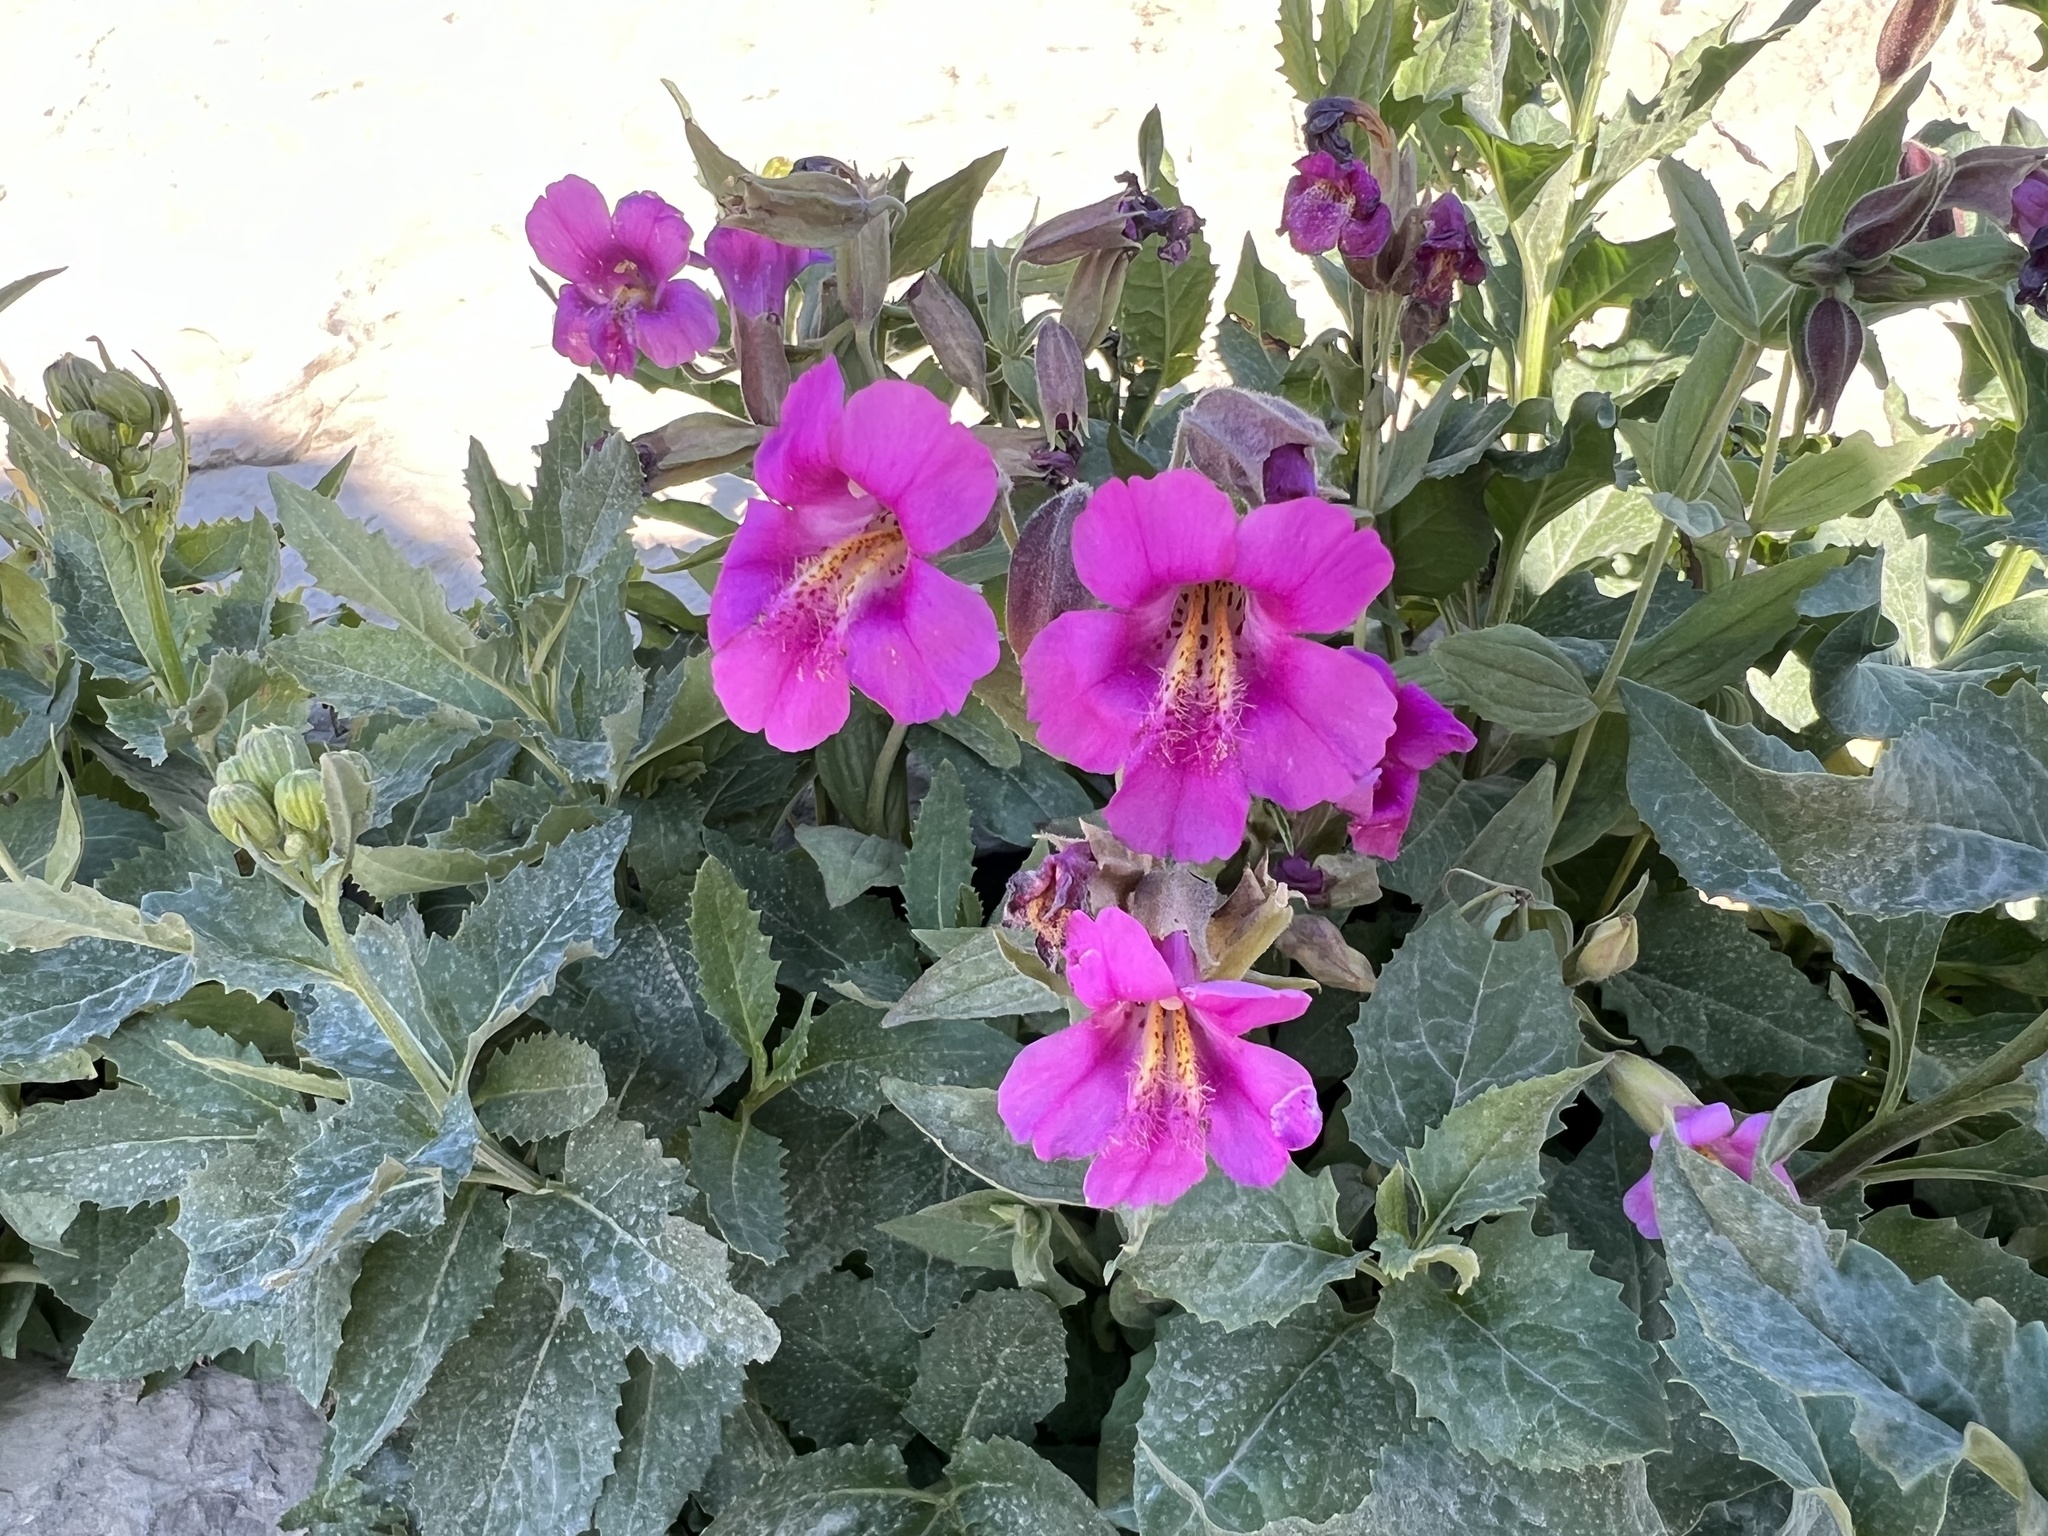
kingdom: Plantae
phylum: Tracheophyta
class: Magnoliopsida
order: Lamiales
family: Phrymaceae
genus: Erythranthe
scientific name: Erythranthe lewisii
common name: Lewis's monkey-flower
